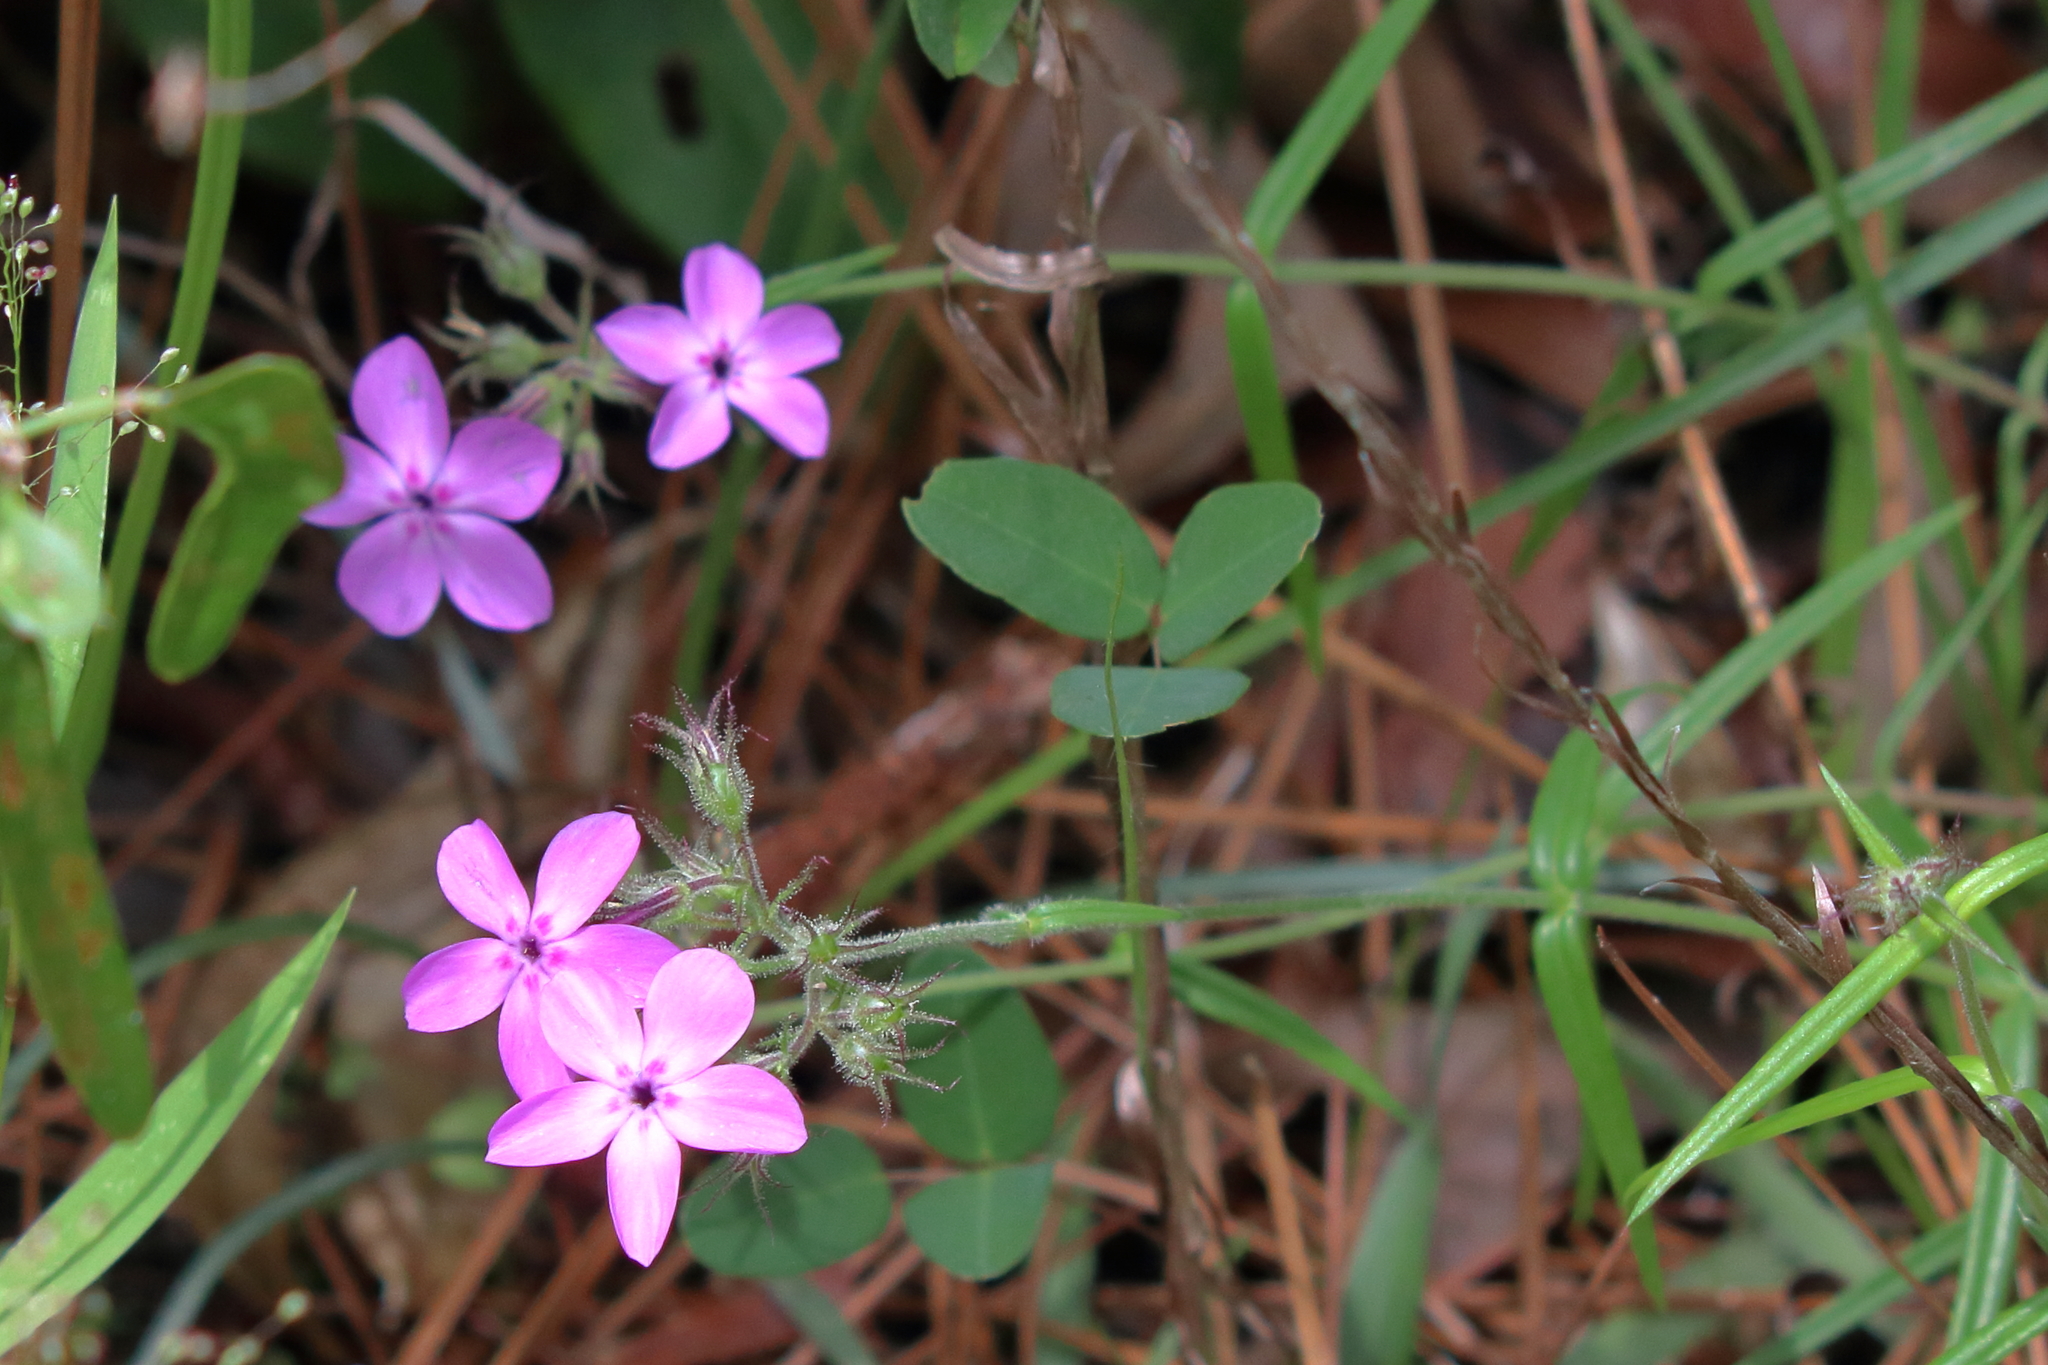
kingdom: Plantae
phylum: Tracheophyta
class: Magnoliopsida
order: Ericales
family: Polemoniaceae
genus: Phlox
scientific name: Phlox pilosa
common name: Prairie phlox
